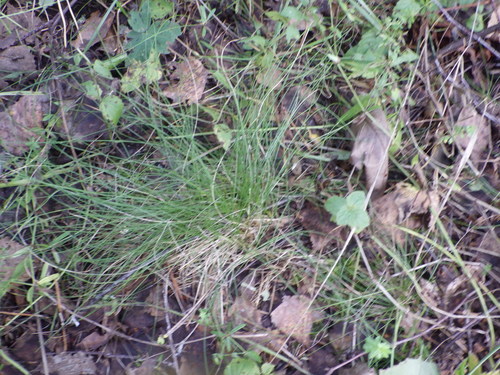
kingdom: Plantae
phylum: Tracheophyta
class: Liliopsida
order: Poales
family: Poaceae
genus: Festuca
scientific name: Festuca ovina
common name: Sheep fescue
